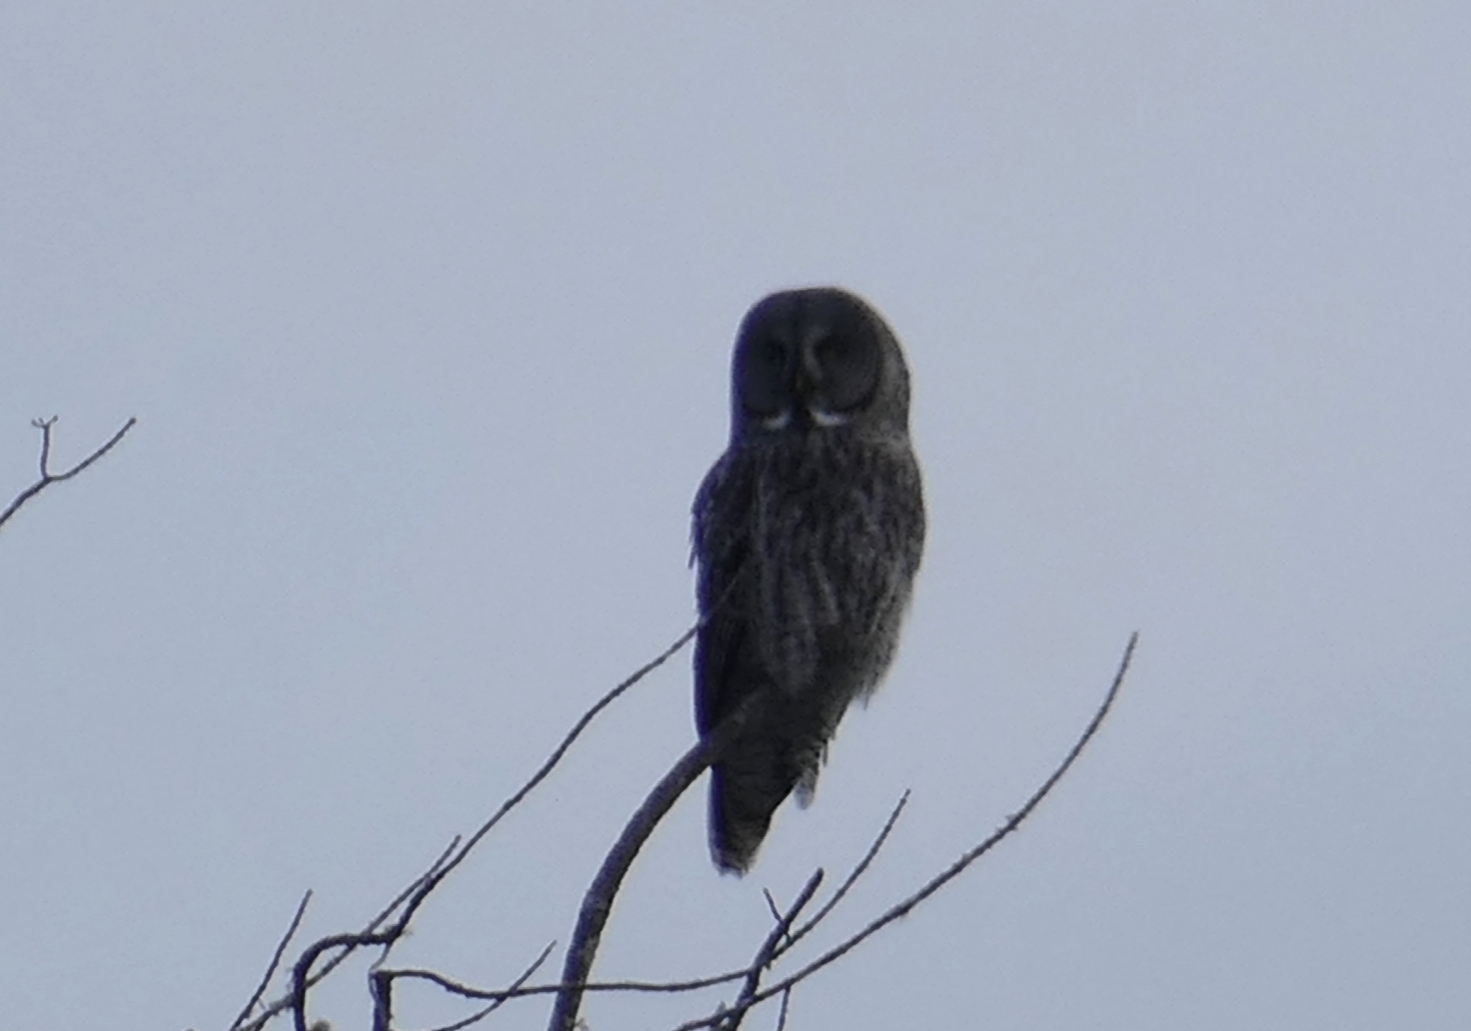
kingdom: Animalia
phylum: Chordata
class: Aves
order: Strigiformes
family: Strigidae
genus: Strix
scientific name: Strix nebulosa
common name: Great grey owl
